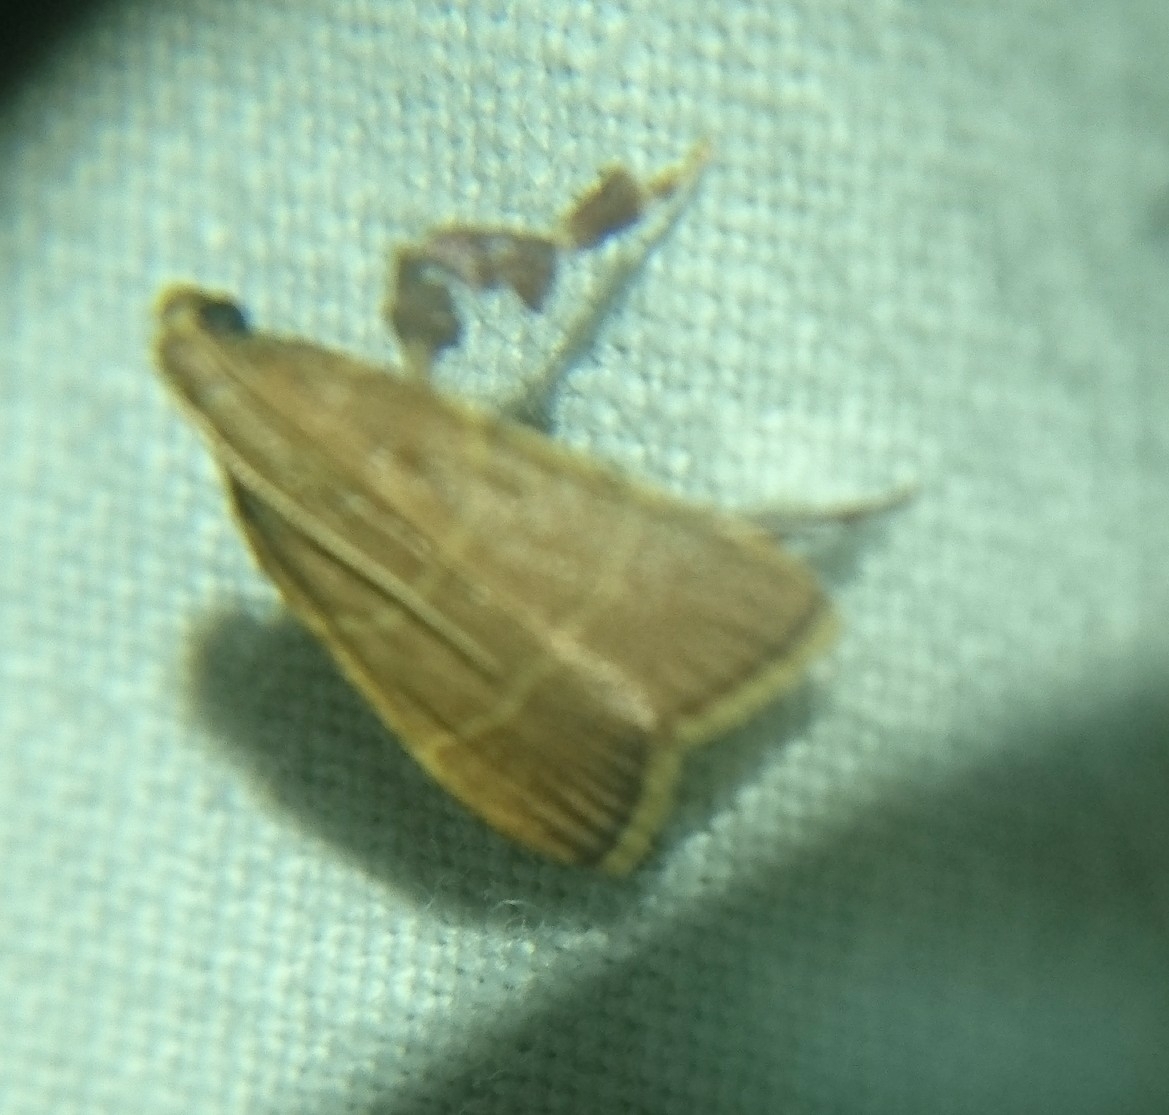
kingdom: Animalia
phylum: Arthropoda
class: Insecta
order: Lepidoptera
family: Pyralidae
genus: Parachma
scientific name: Parachma ochracealis
